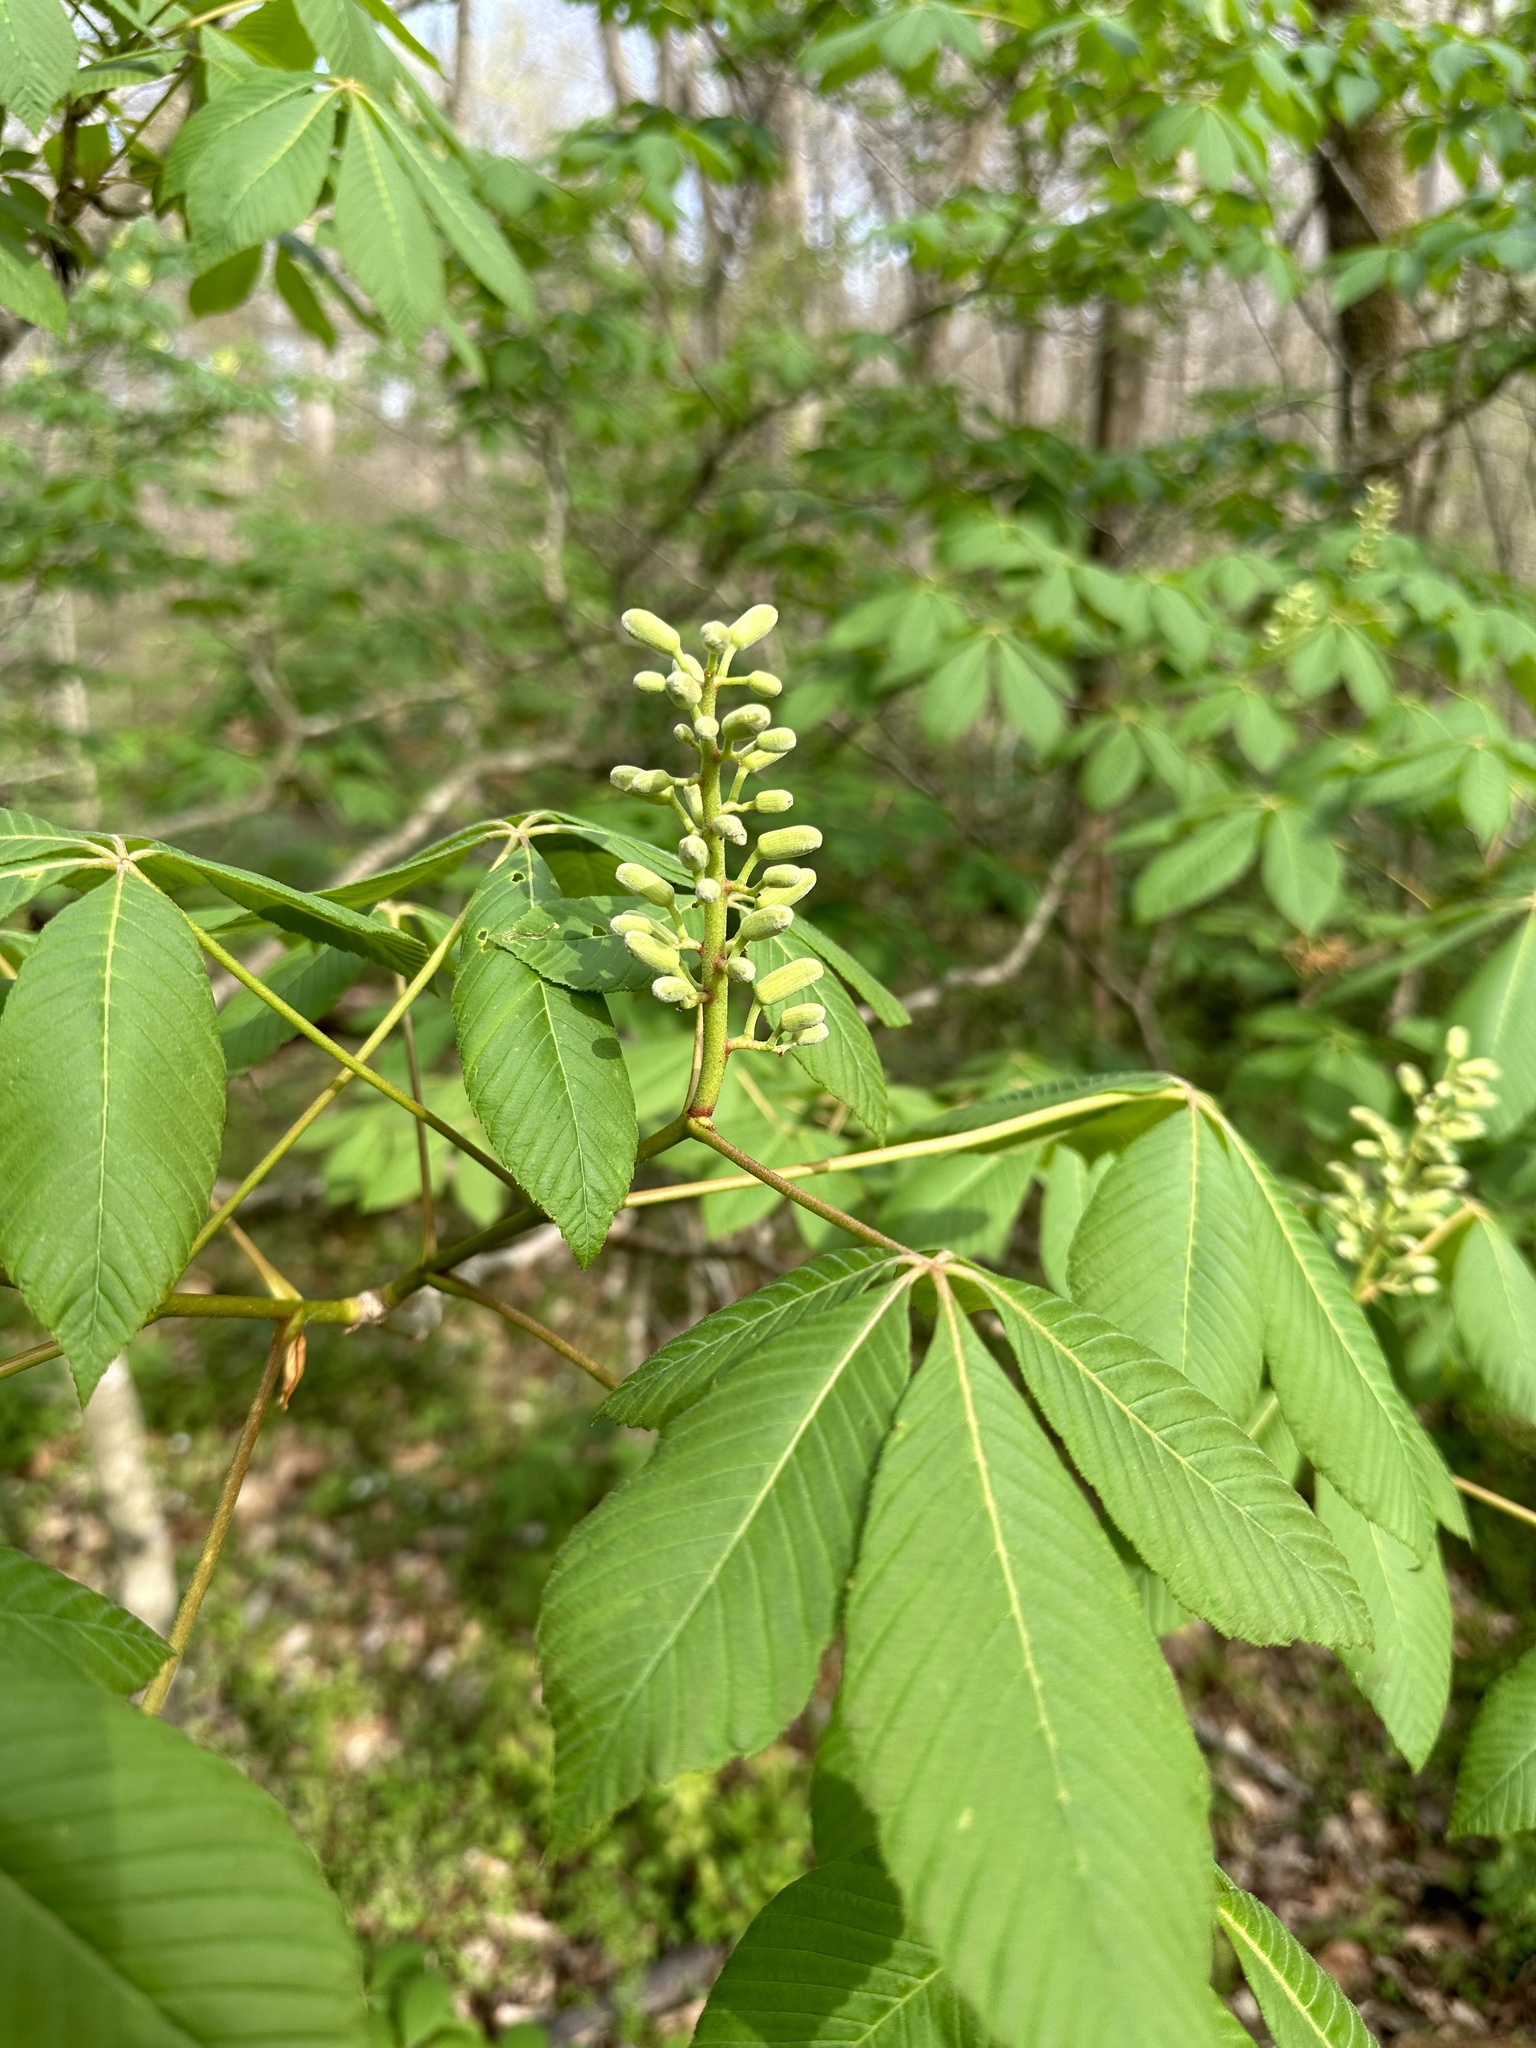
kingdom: Plantae
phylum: Tracheophyta
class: Magnoliopsida
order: Sapindales
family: Sapindaceae
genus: Aesculus
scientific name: Aesculus sylvatica
